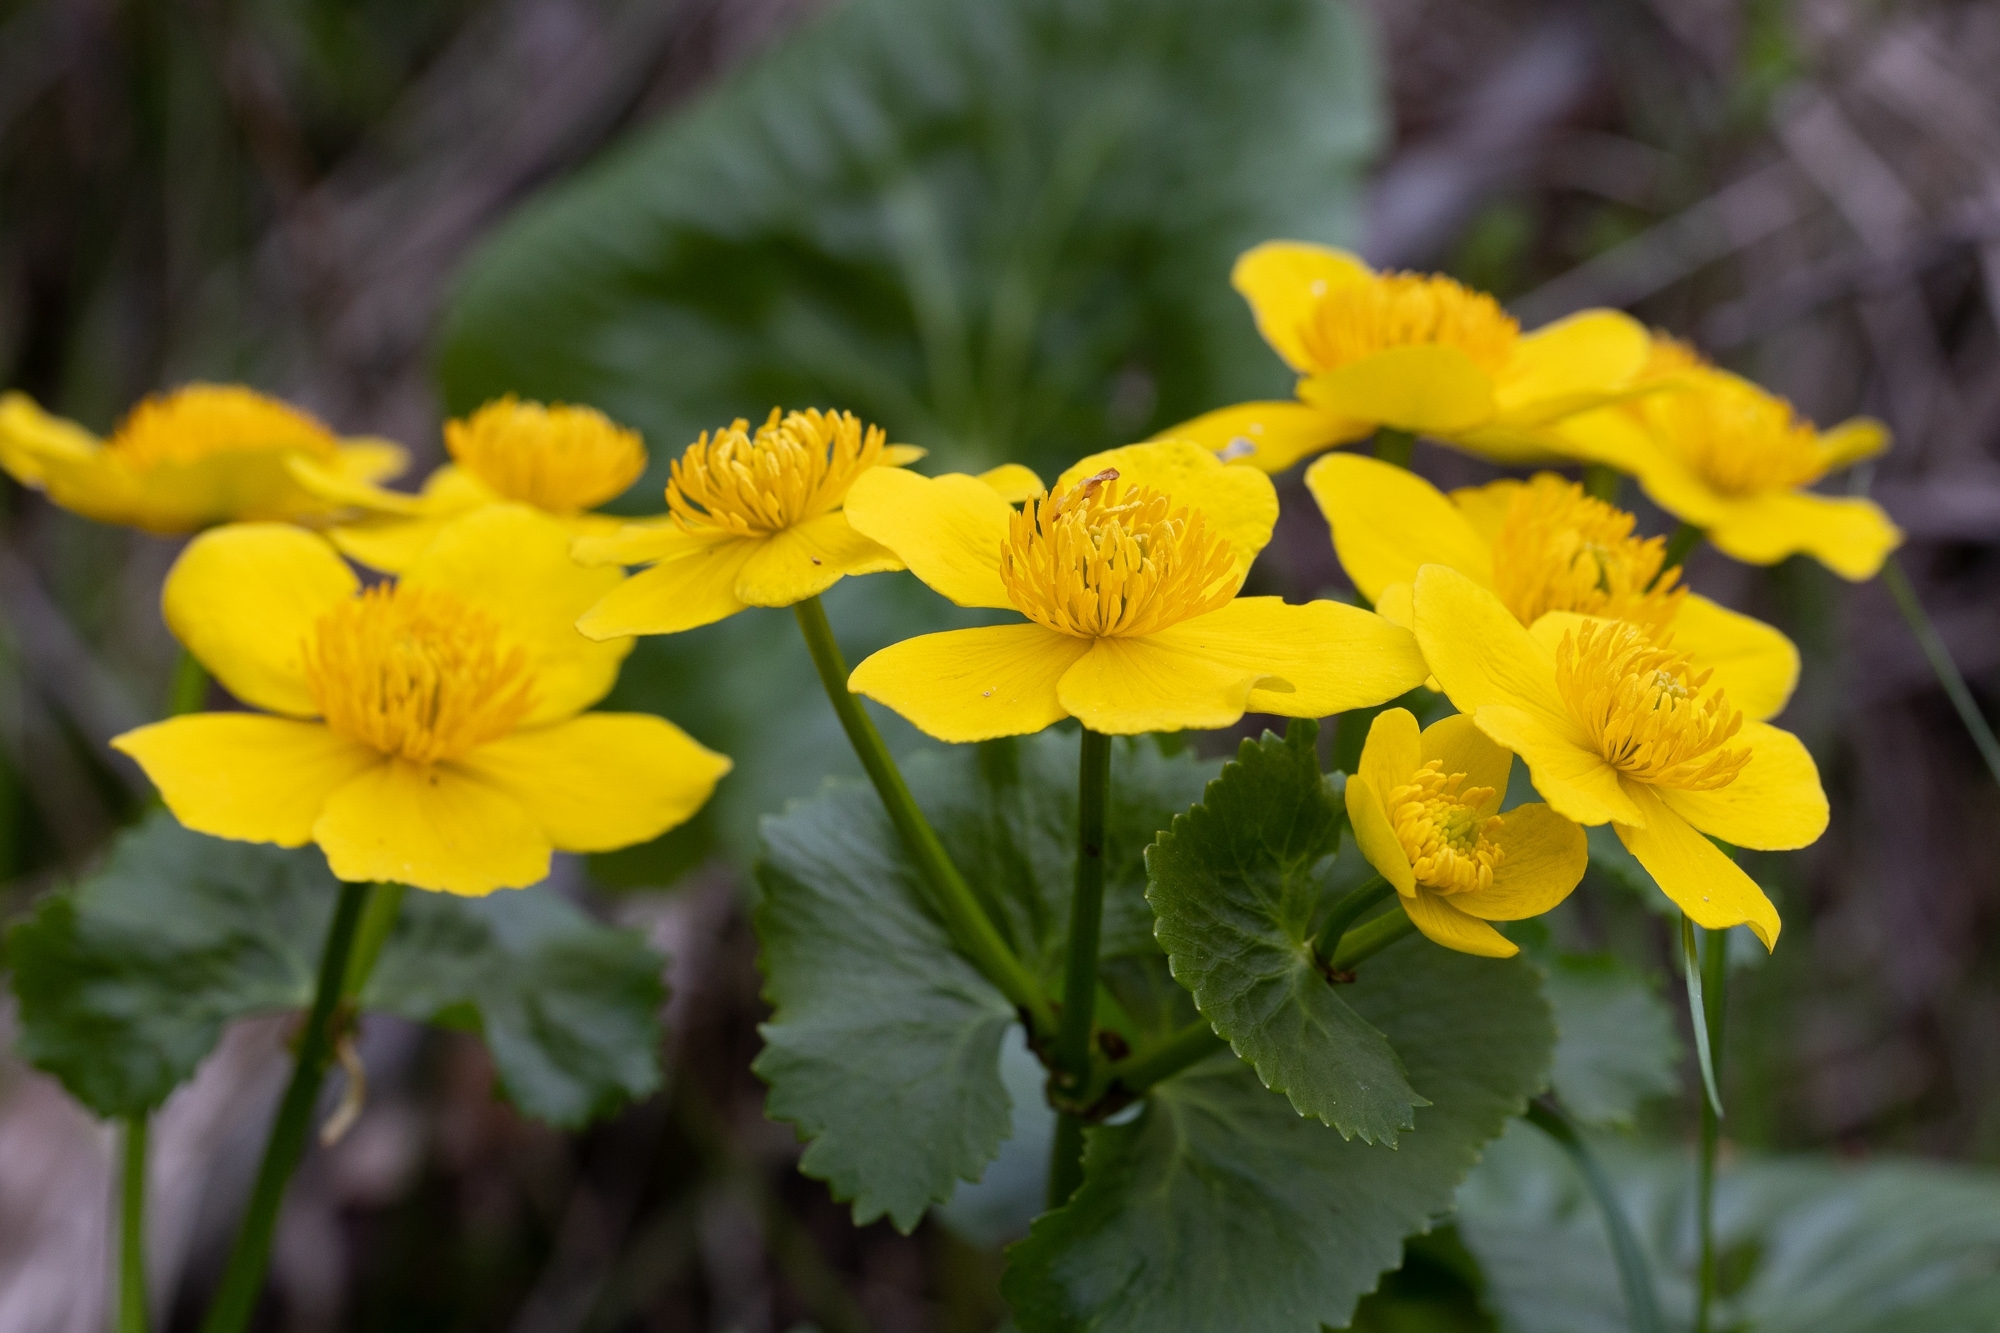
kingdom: Plantae
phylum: Tracheophyta
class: Magnoliopsida
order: Ranunculales
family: Ranunculaceae
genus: Caltha
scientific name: Caltha palustris
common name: Marsh marigold
